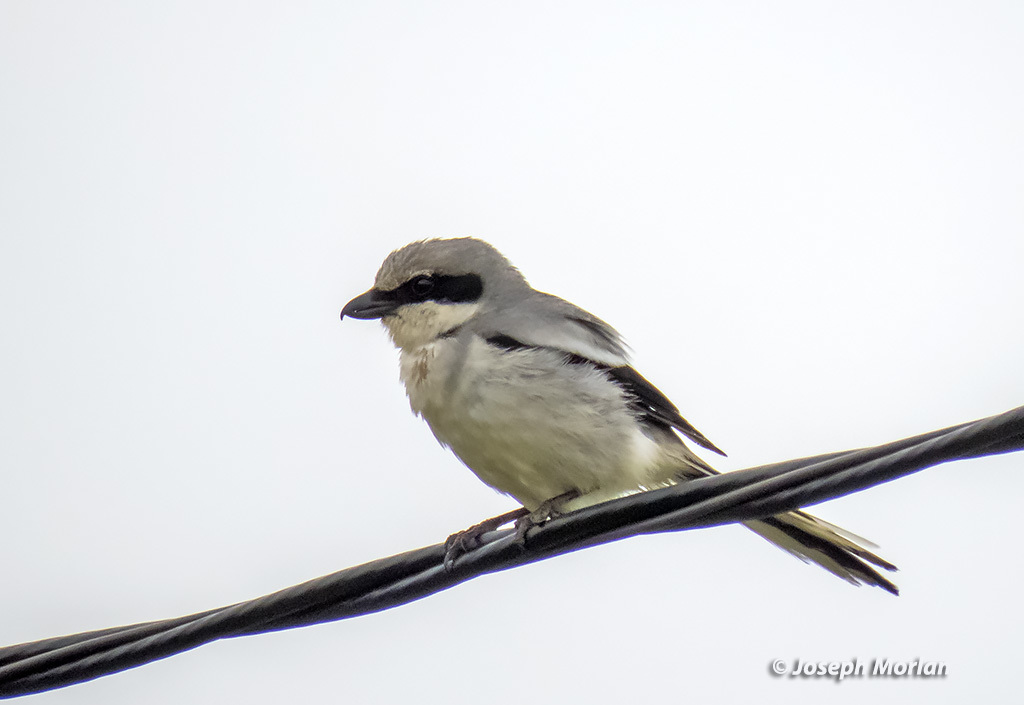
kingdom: Animalia
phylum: Chordata
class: Aves
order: Passeriformes
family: Laniidae
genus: Lanius
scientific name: Lanius ludovicianus
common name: Loggerhead shrike
